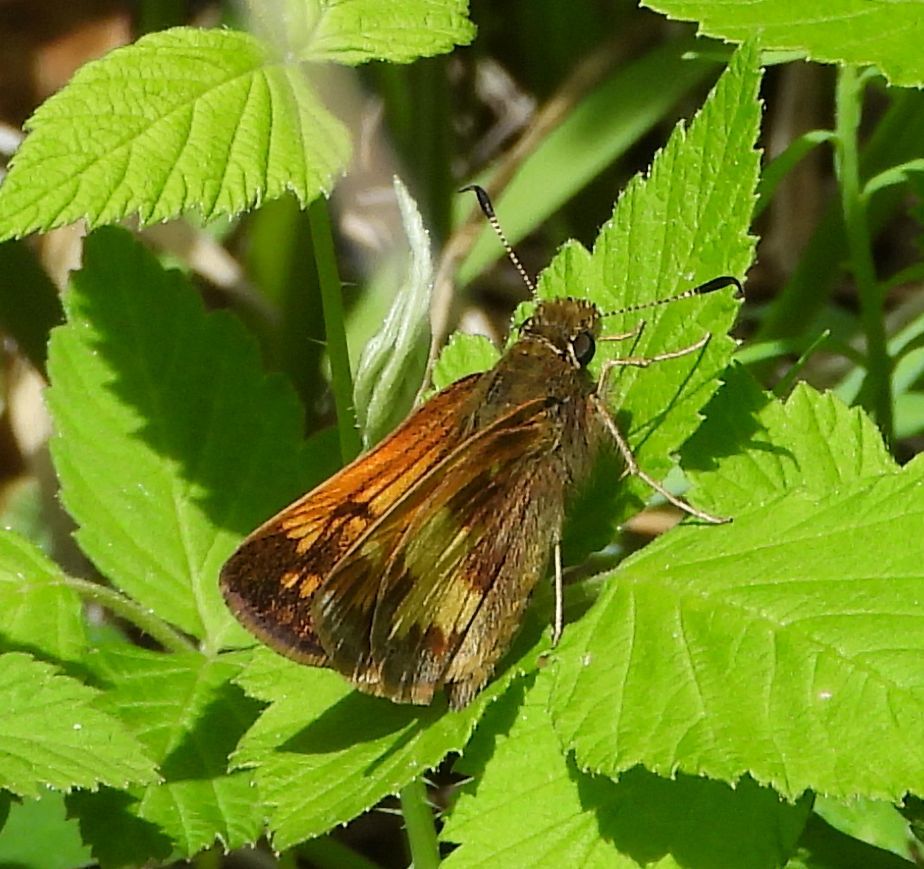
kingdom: Animalia
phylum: Arthropoda
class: Insecta
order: Lepidoptera
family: Hesperiidae
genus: Lon
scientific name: Lon hobomok
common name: Hobomok skipper
